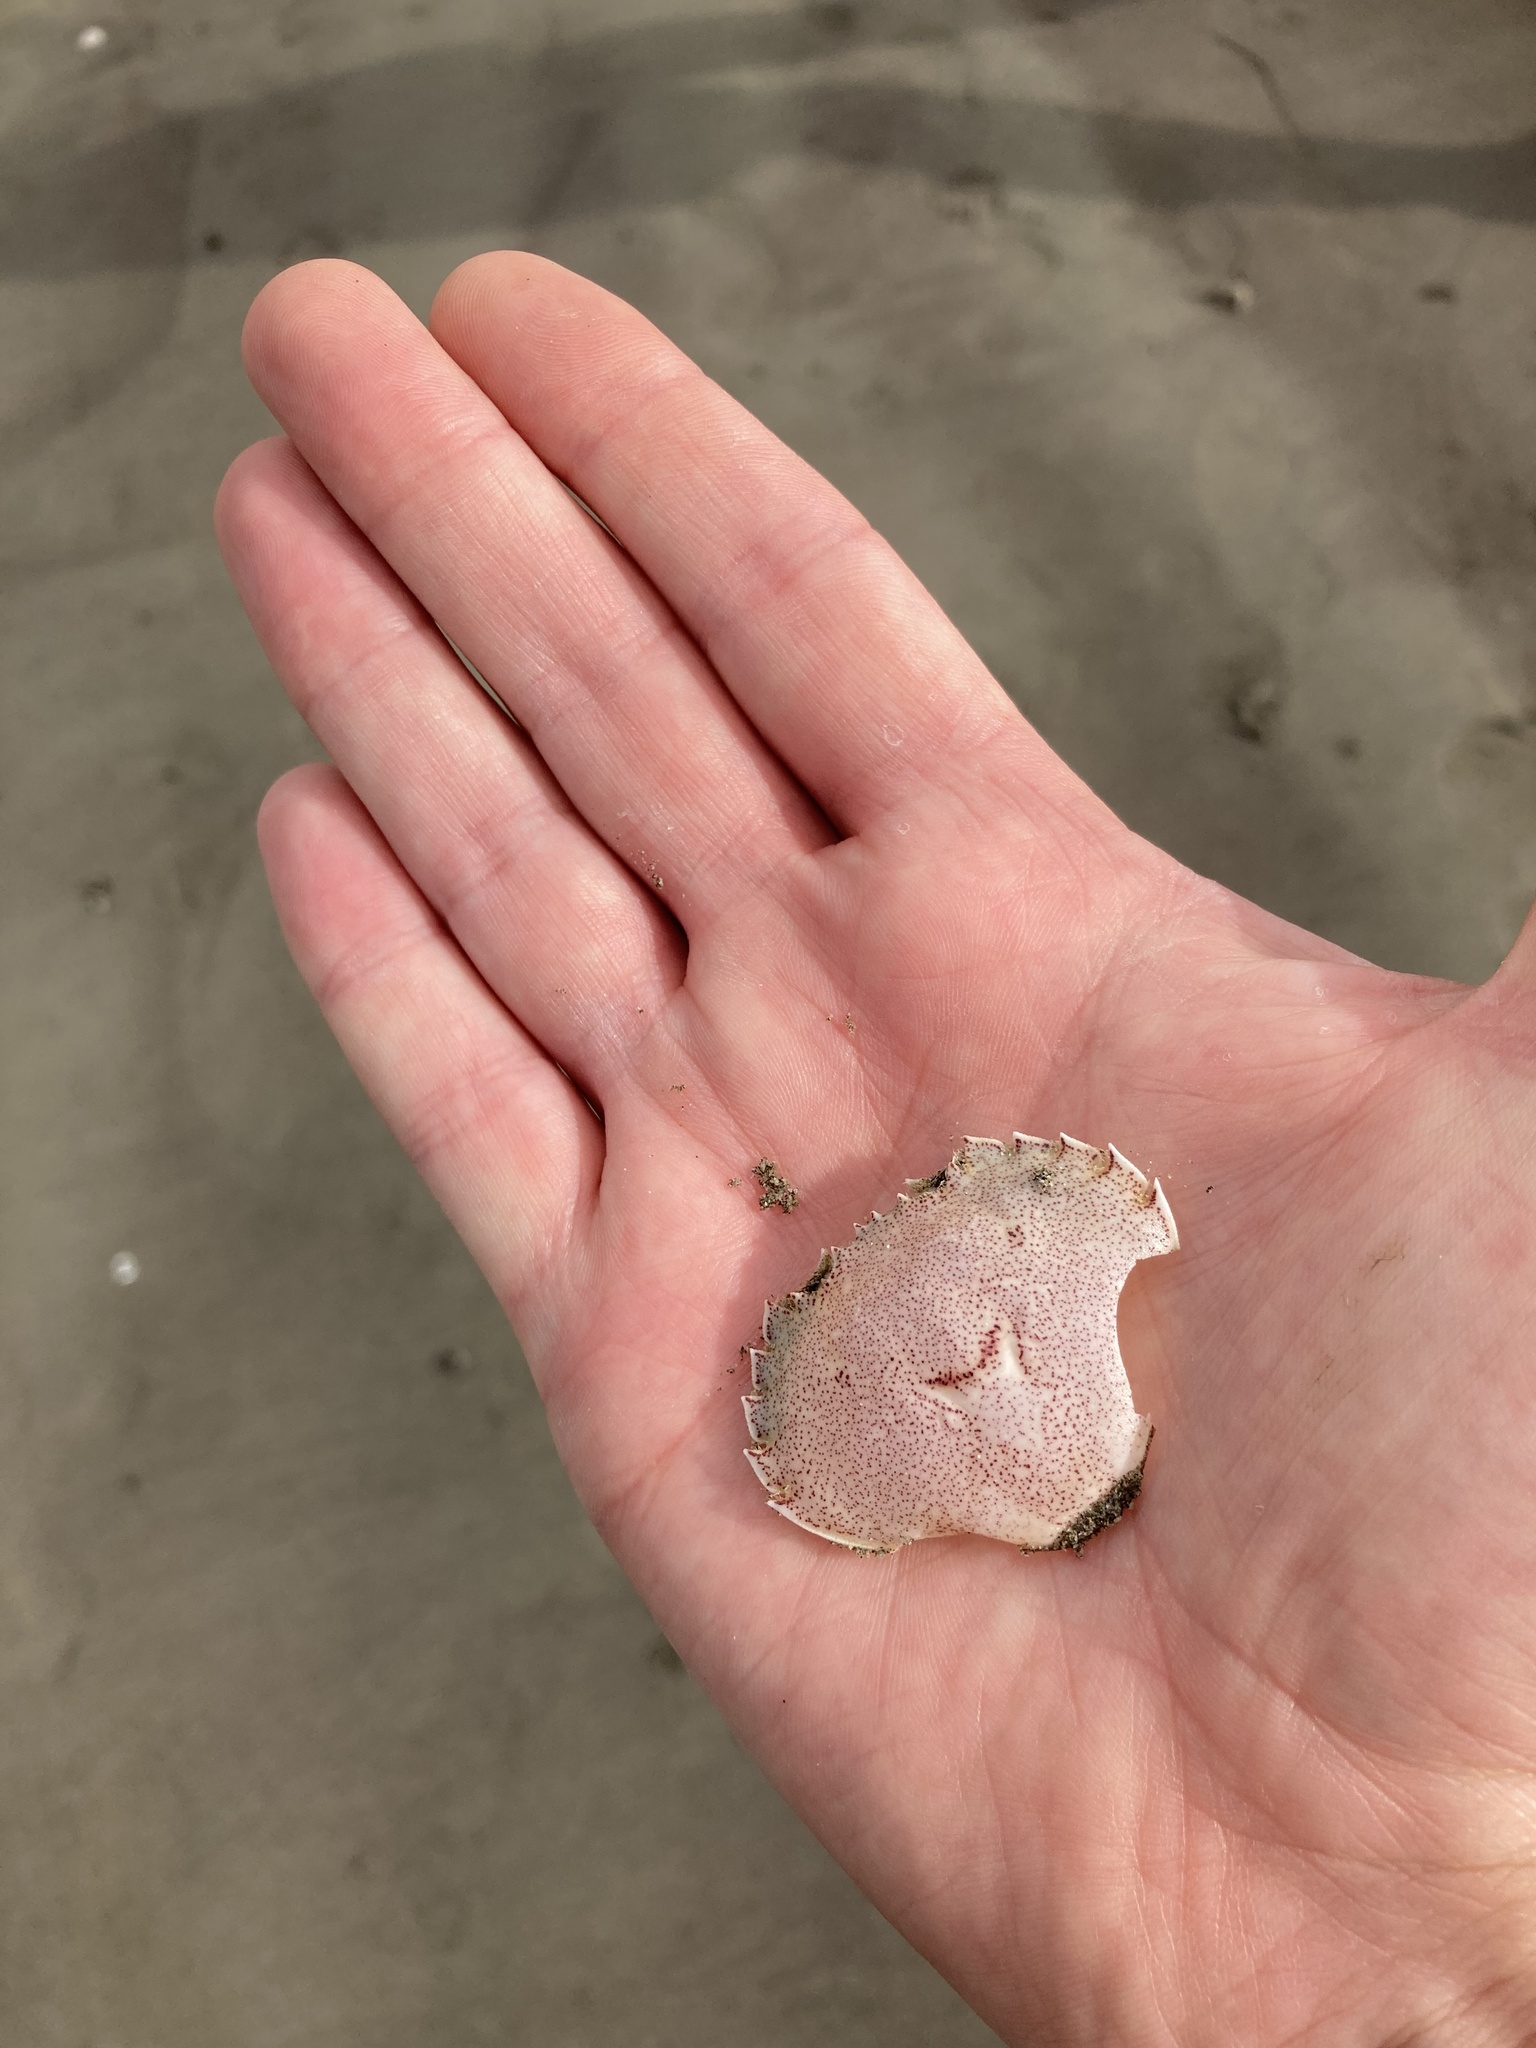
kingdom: Animalia
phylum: Arthropoda
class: Malacostraca
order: Decapoda
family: Ovalipidae
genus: Ovalipes
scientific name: Ovalipes catharus
